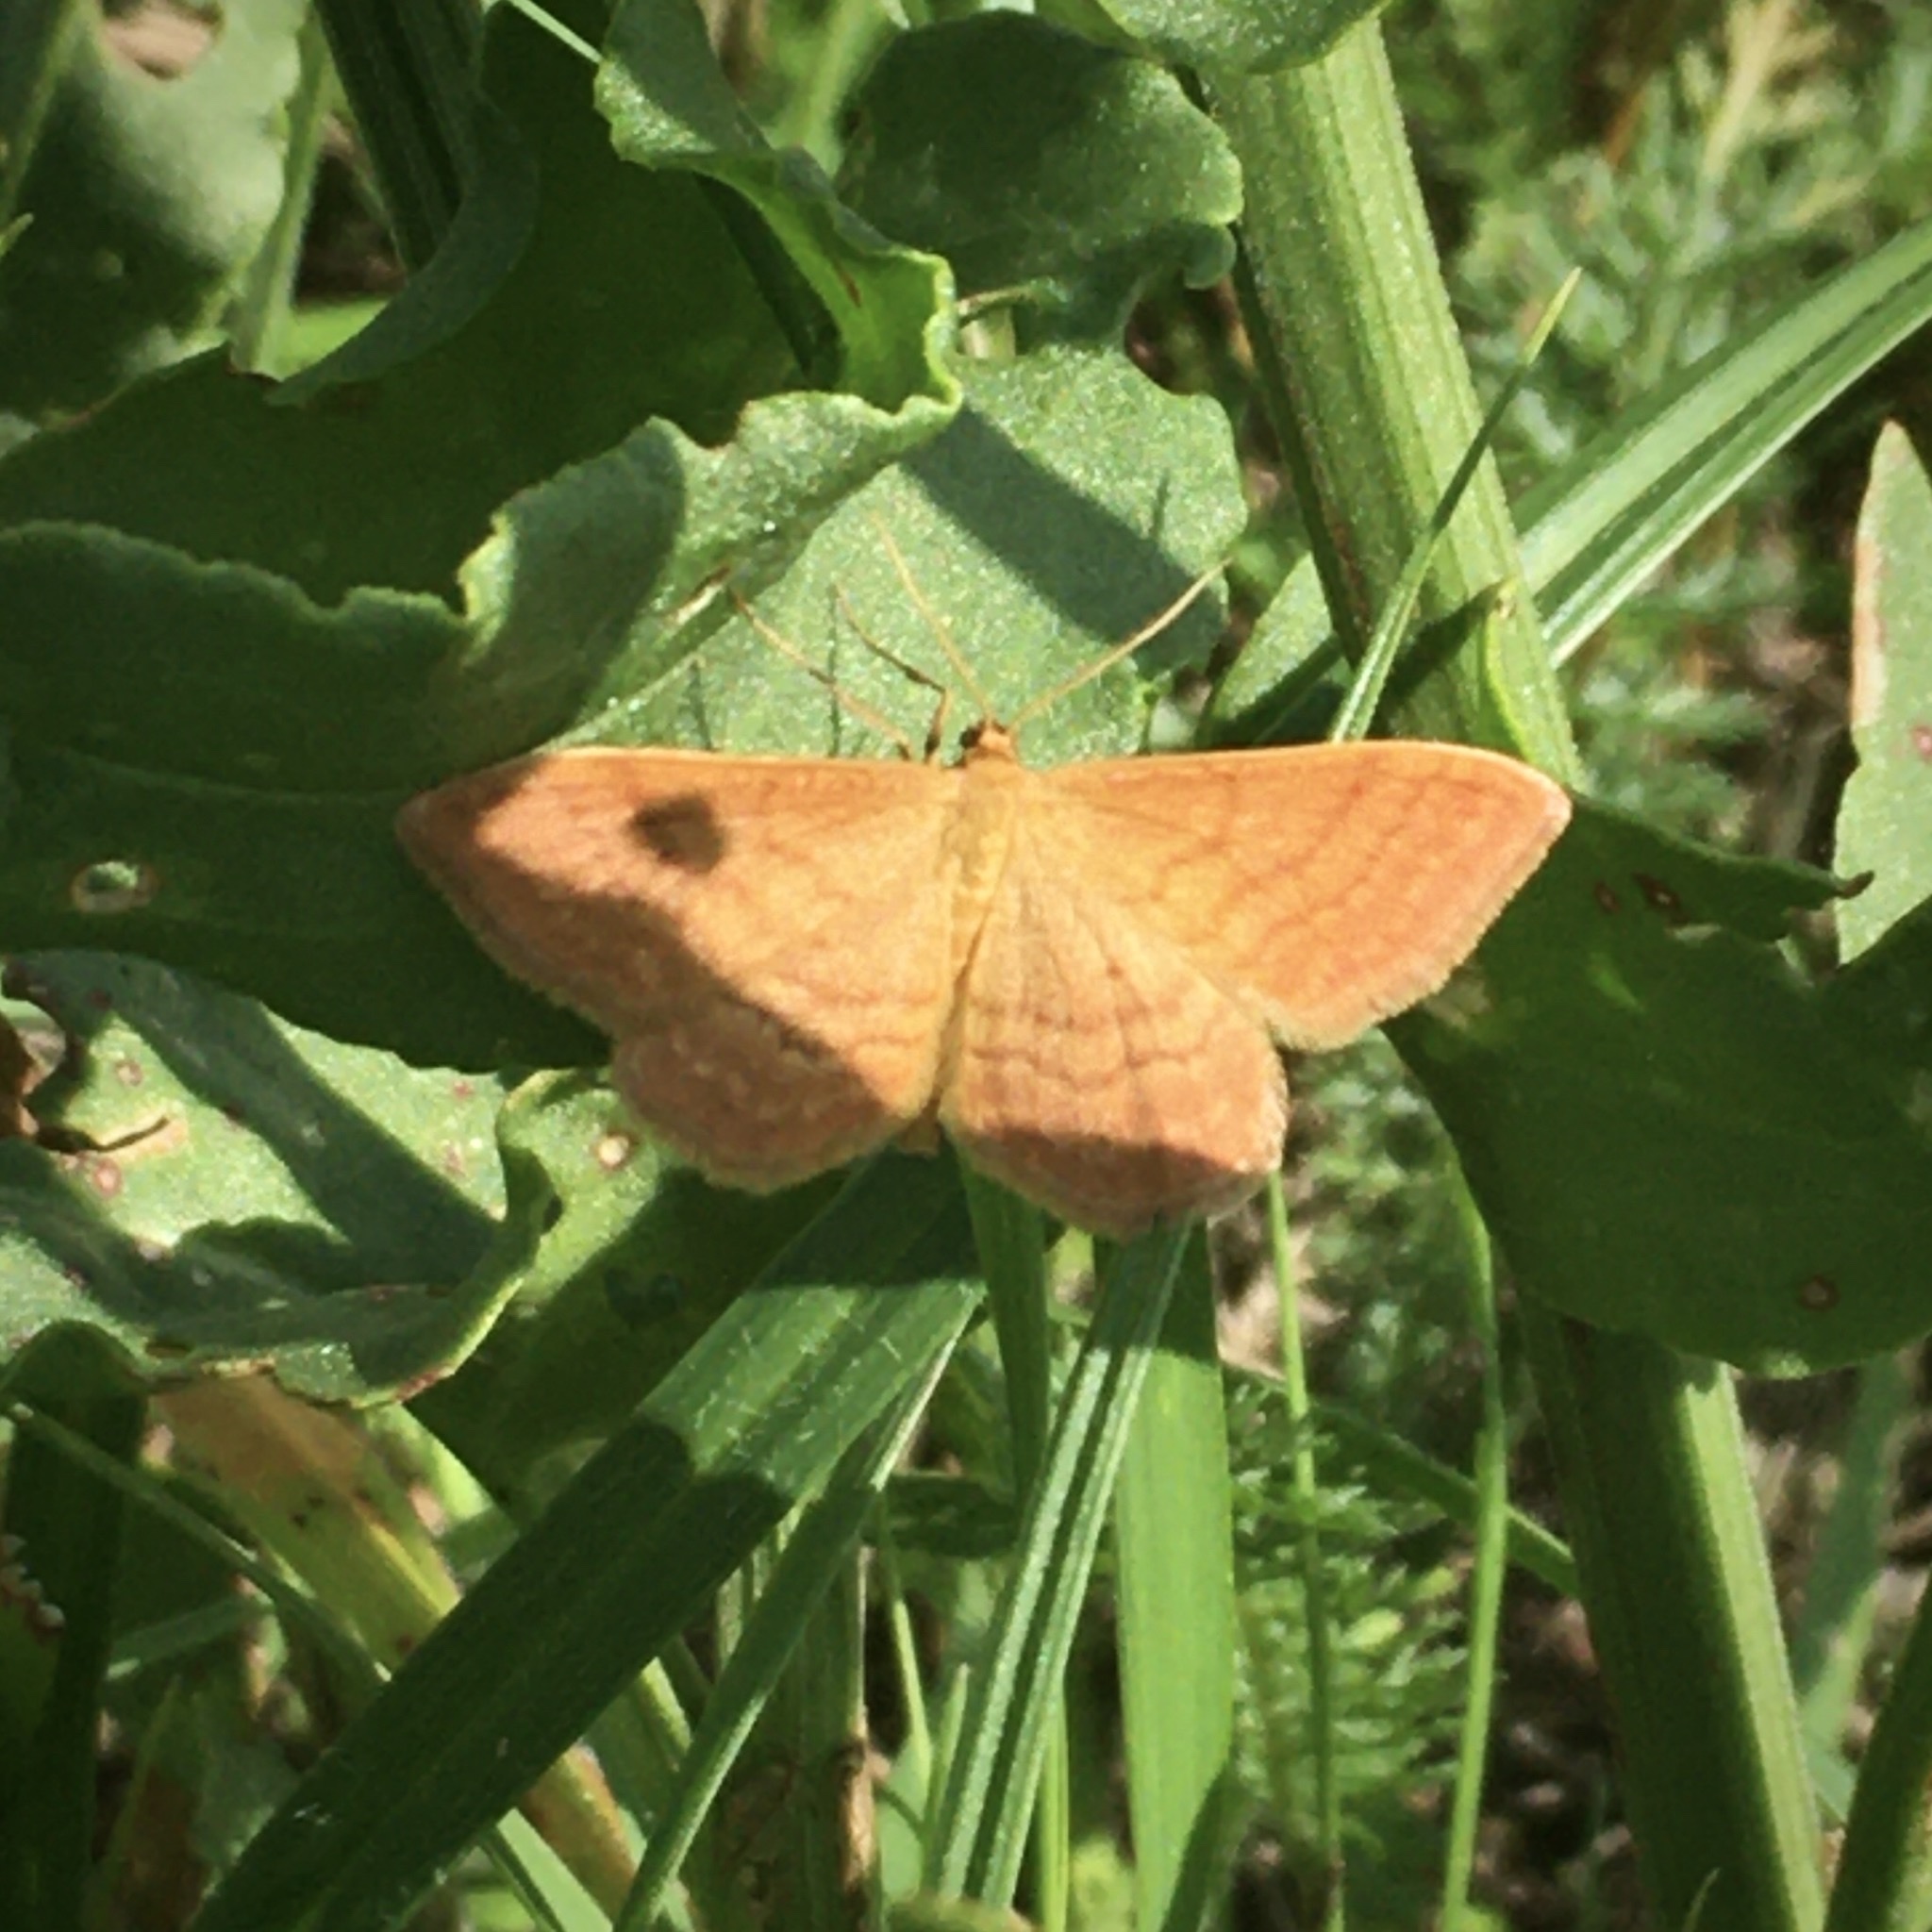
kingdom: Animalia
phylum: Arthropoda
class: Insecta
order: Lepidoptera
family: Geometridae
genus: Idaea
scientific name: Idaea ochrata
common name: Bright wave
